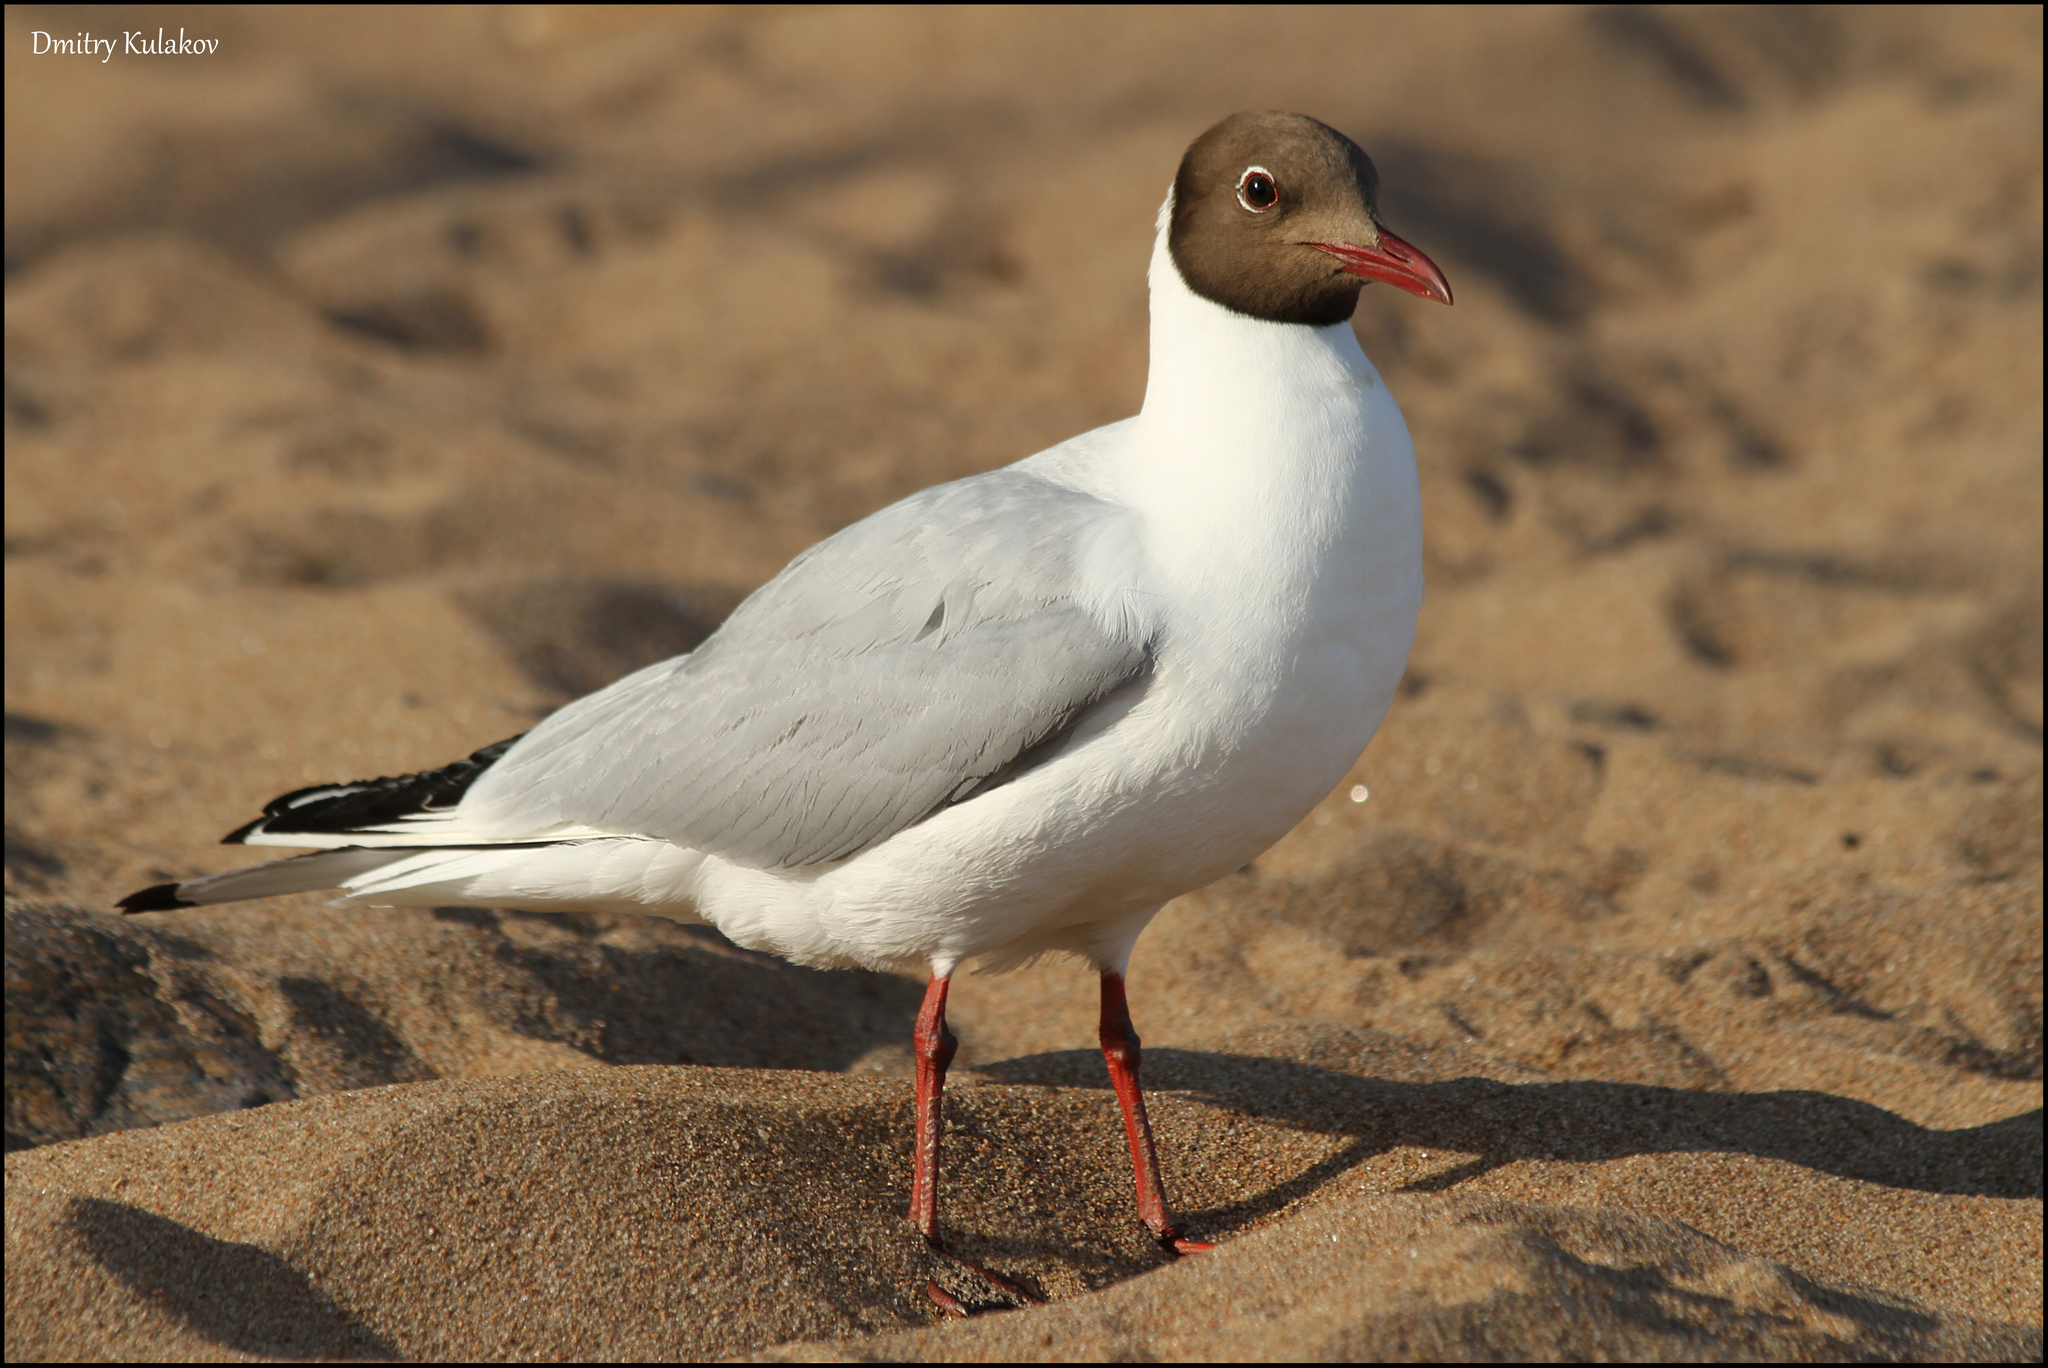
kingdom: Animalia
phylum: Chordata
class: Aves
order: Charadriiformes
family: Laridae
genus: Chroicocephalus
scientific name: Chroicocephalus ridibundus
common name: Black-headed gull
